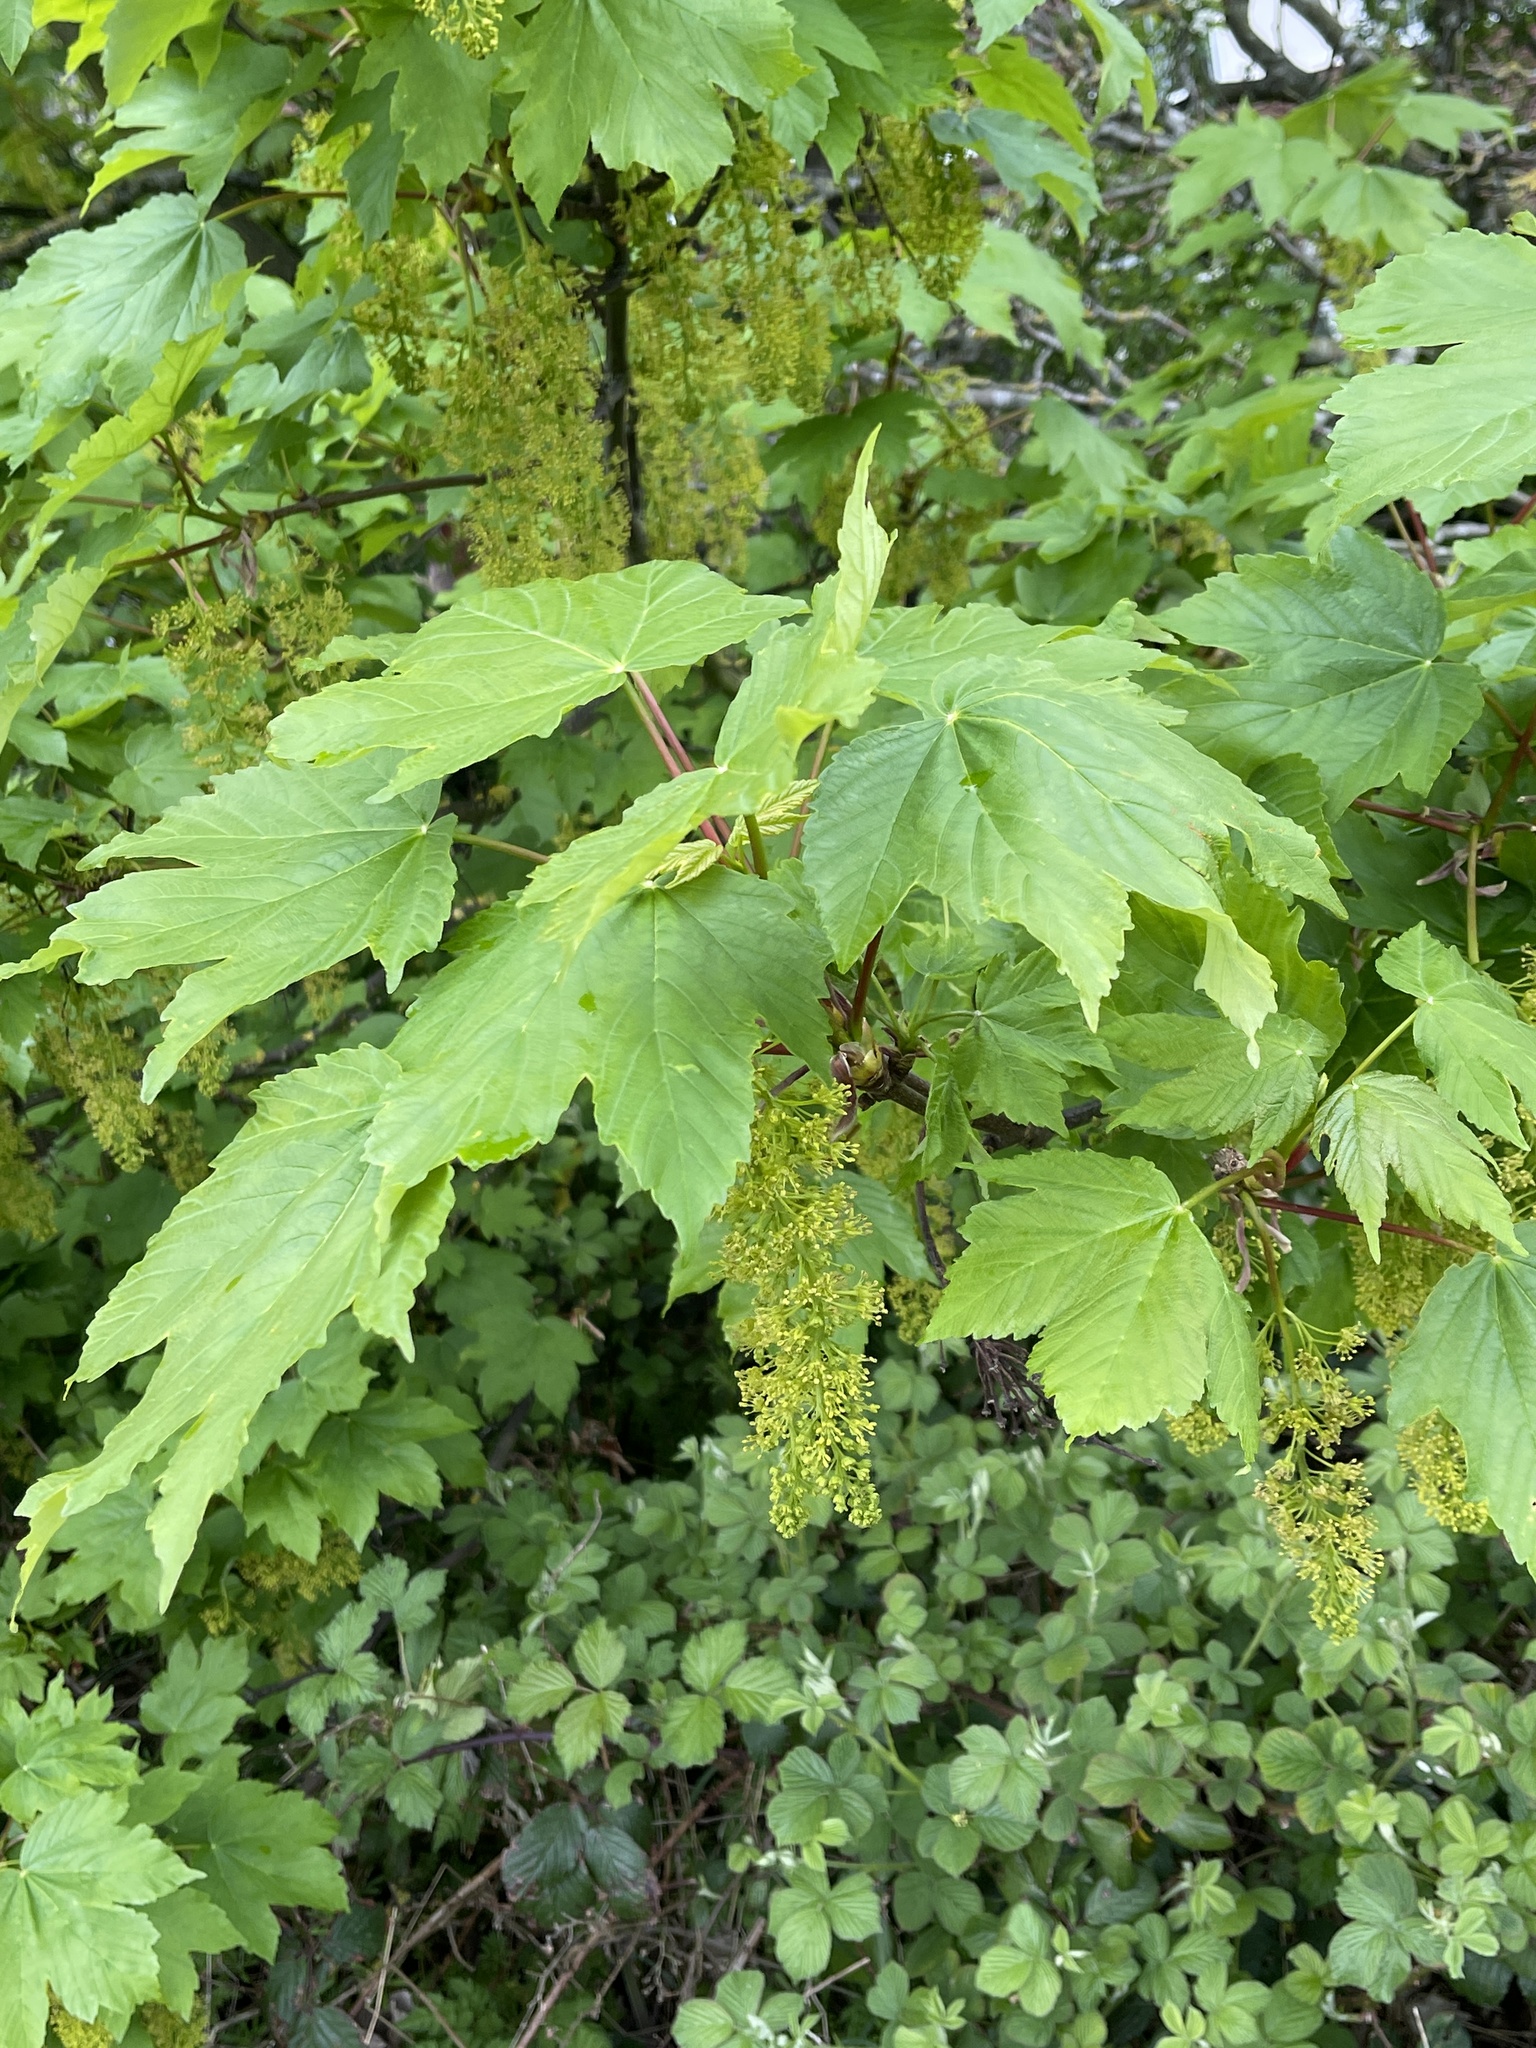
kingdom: Plantae
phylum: Tracheophyta
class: Magnoliopsida
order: Sapindales
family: Sapindaceae
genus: Acer
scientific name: Acer pseudoplatanus
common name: Sycamore
